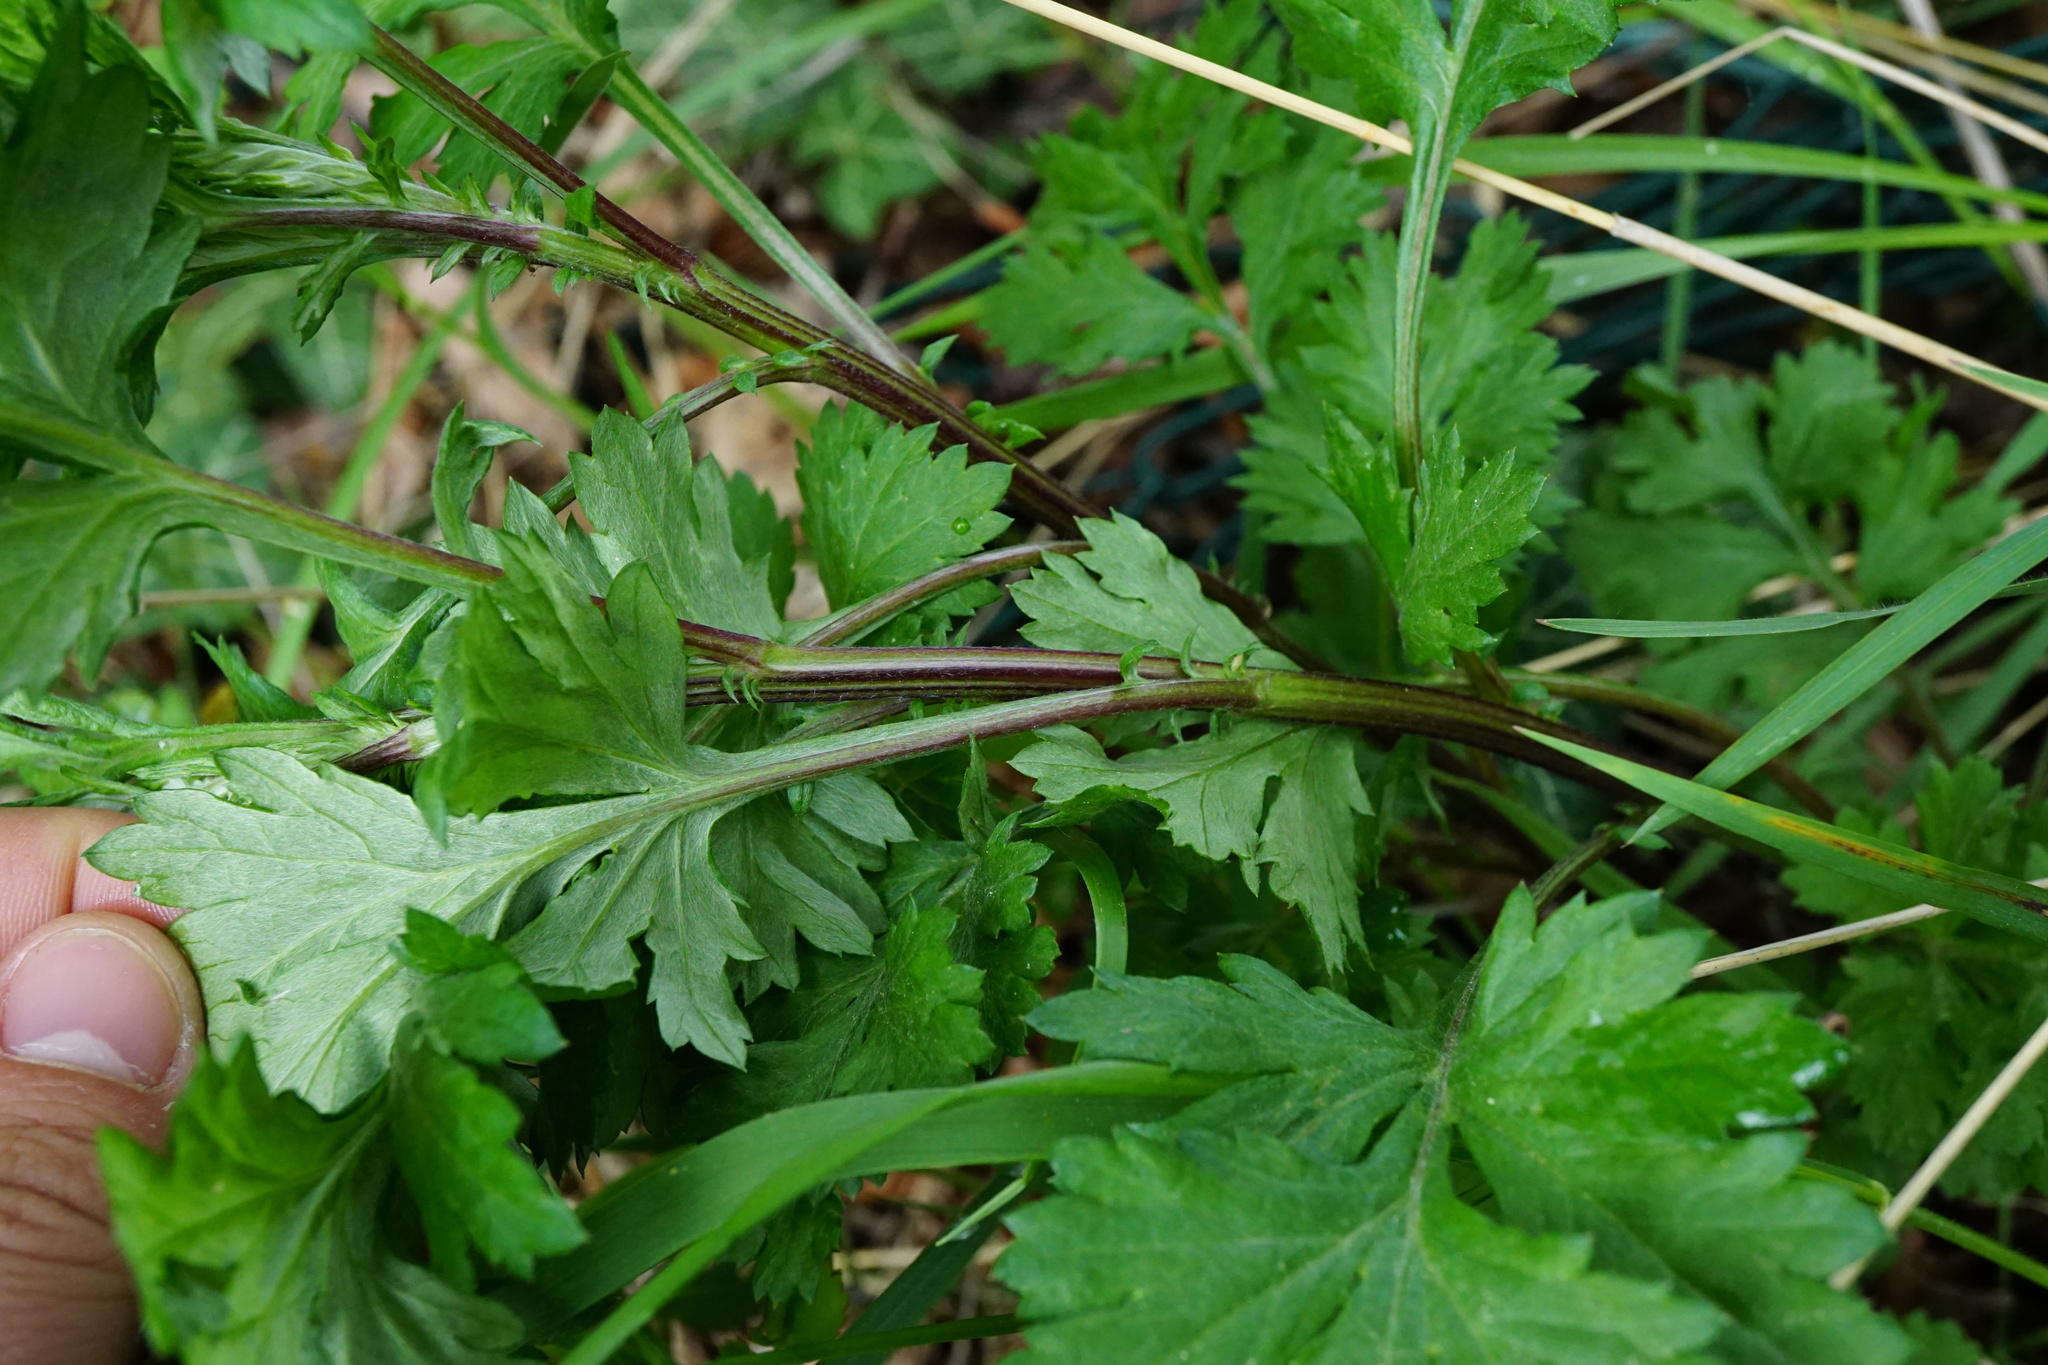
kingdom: Plantae
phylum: Tracheophyta
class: Magnoliopsida
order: Asterales
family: Asteraceae
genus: Artemisia
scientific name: Artemisia vulgaris
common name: Mugwort
